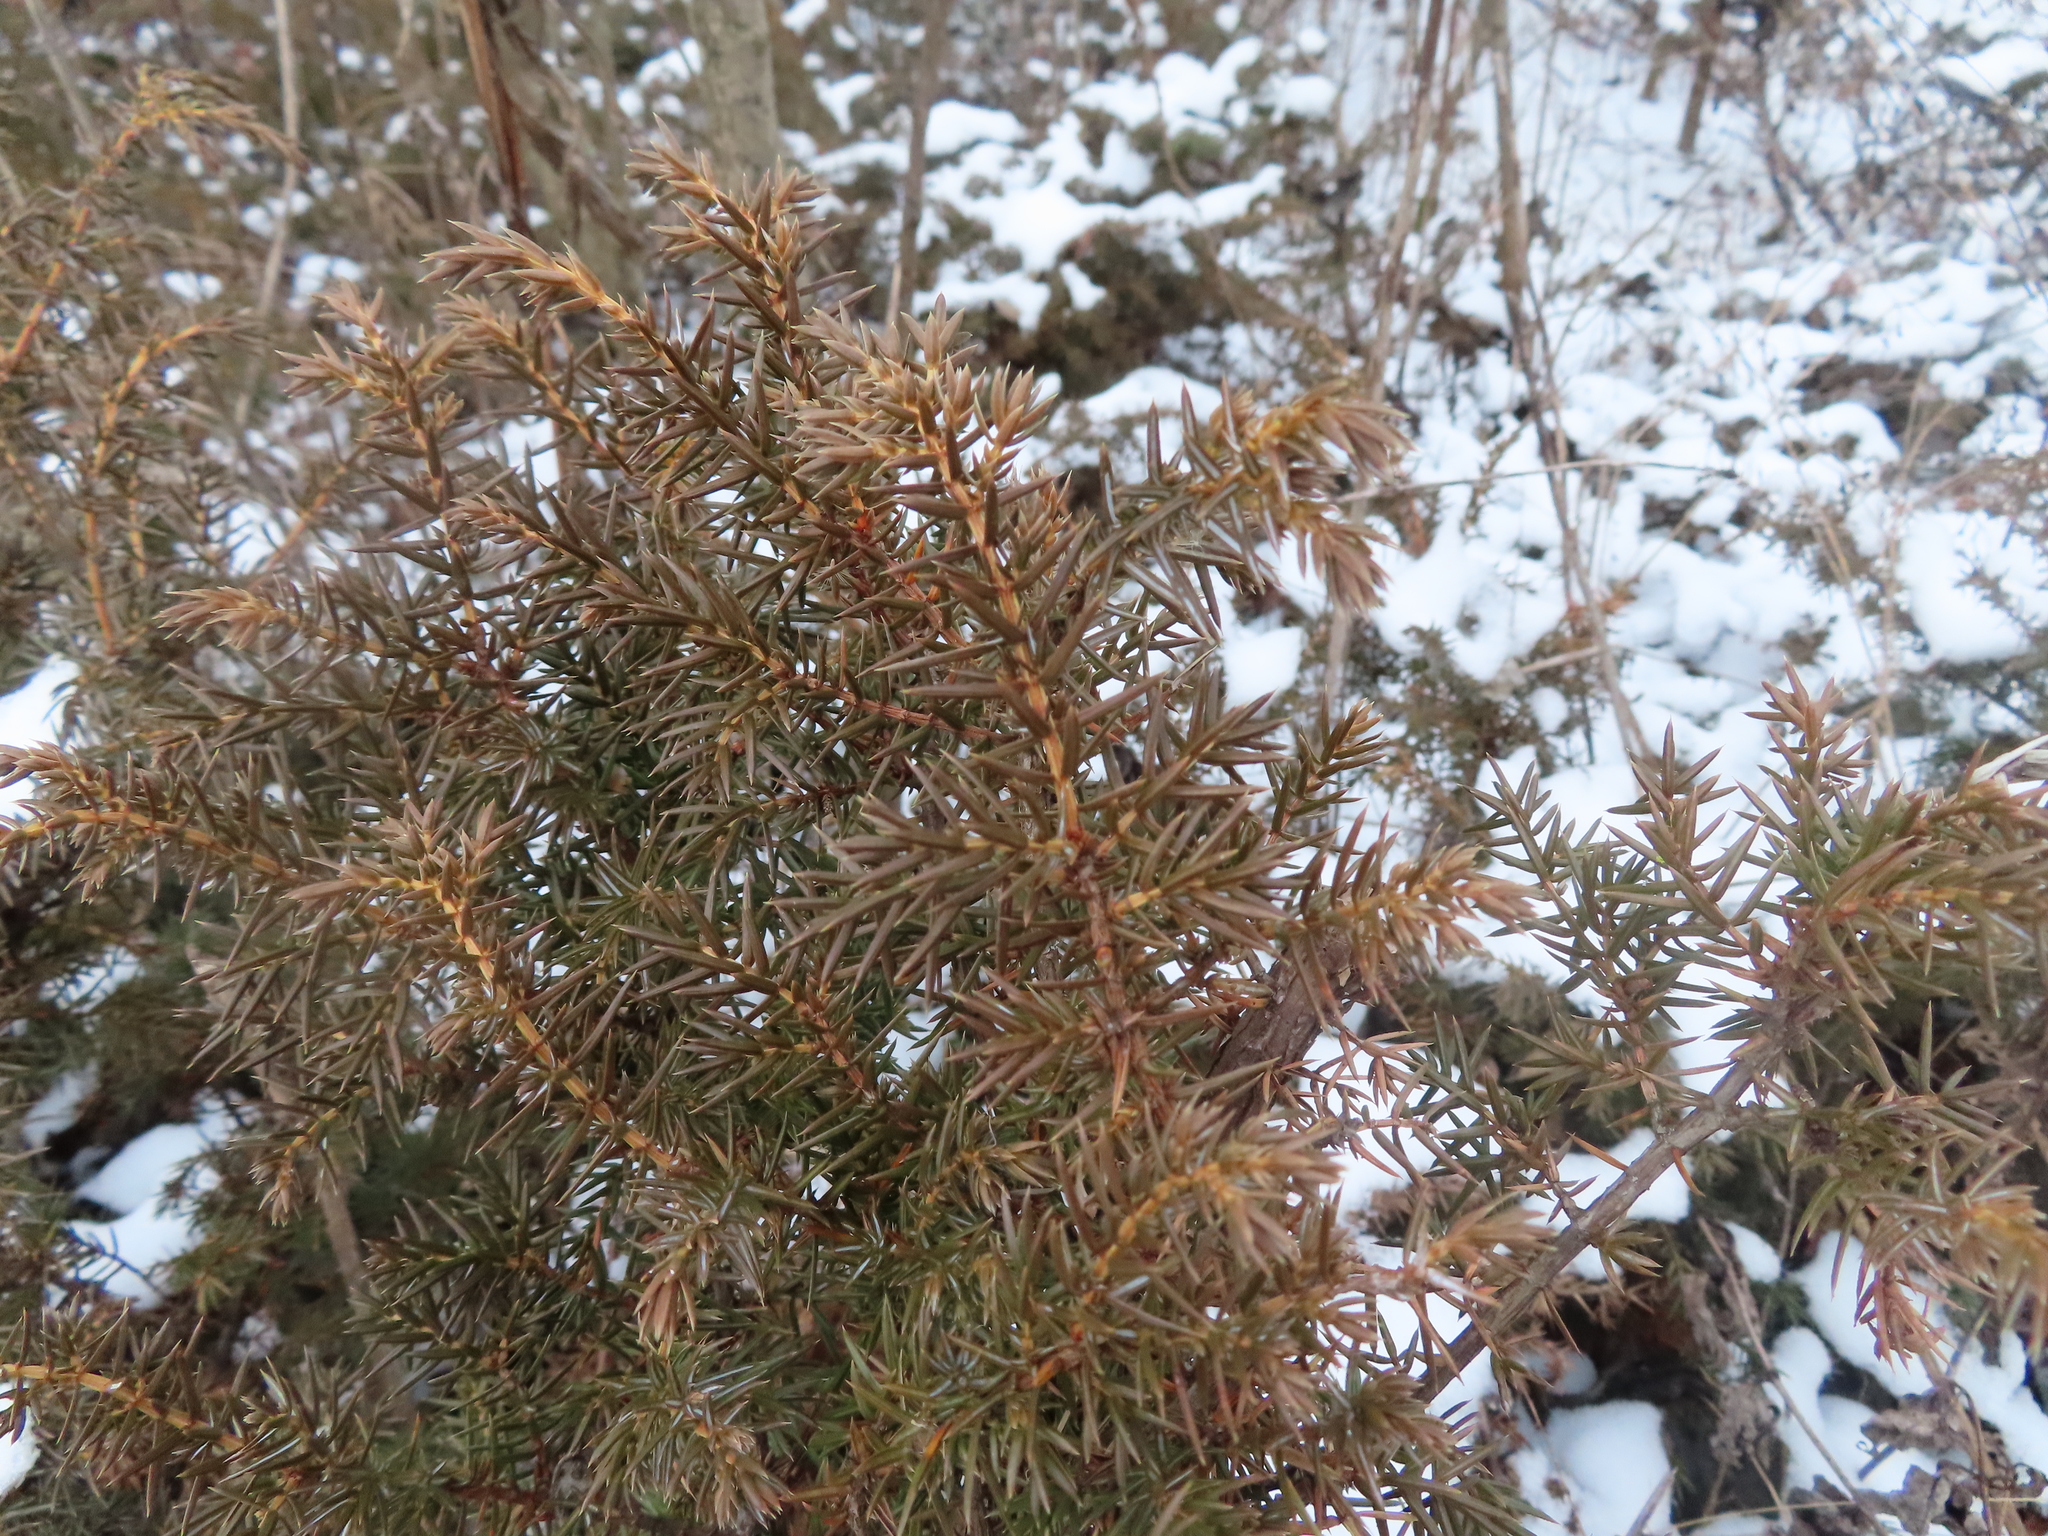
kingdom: Plantae
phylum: Tracheophyta
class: Pinopsida
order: Pinales
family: Cupressaceae
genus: Juniperus
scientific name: Juniperus communis
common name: Common juniper
